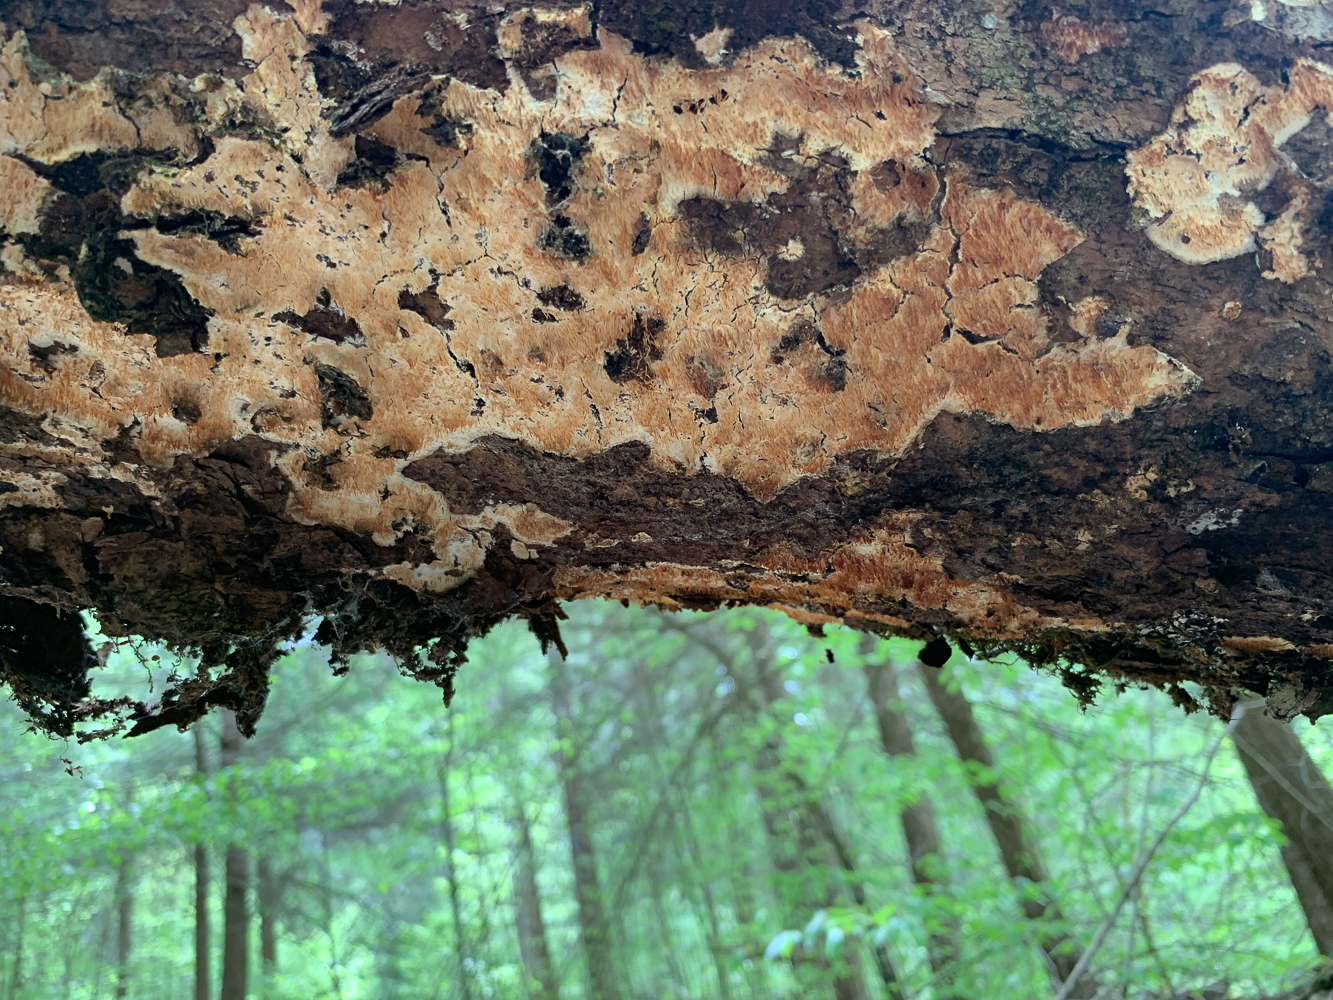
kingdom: Fungi
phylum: Basidiomycota
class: Agaricomycetes
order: Agaricales
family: Radulomycetaceae
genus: Radulomyces
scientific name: Radulomyces copelandii
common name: Asian beauty
